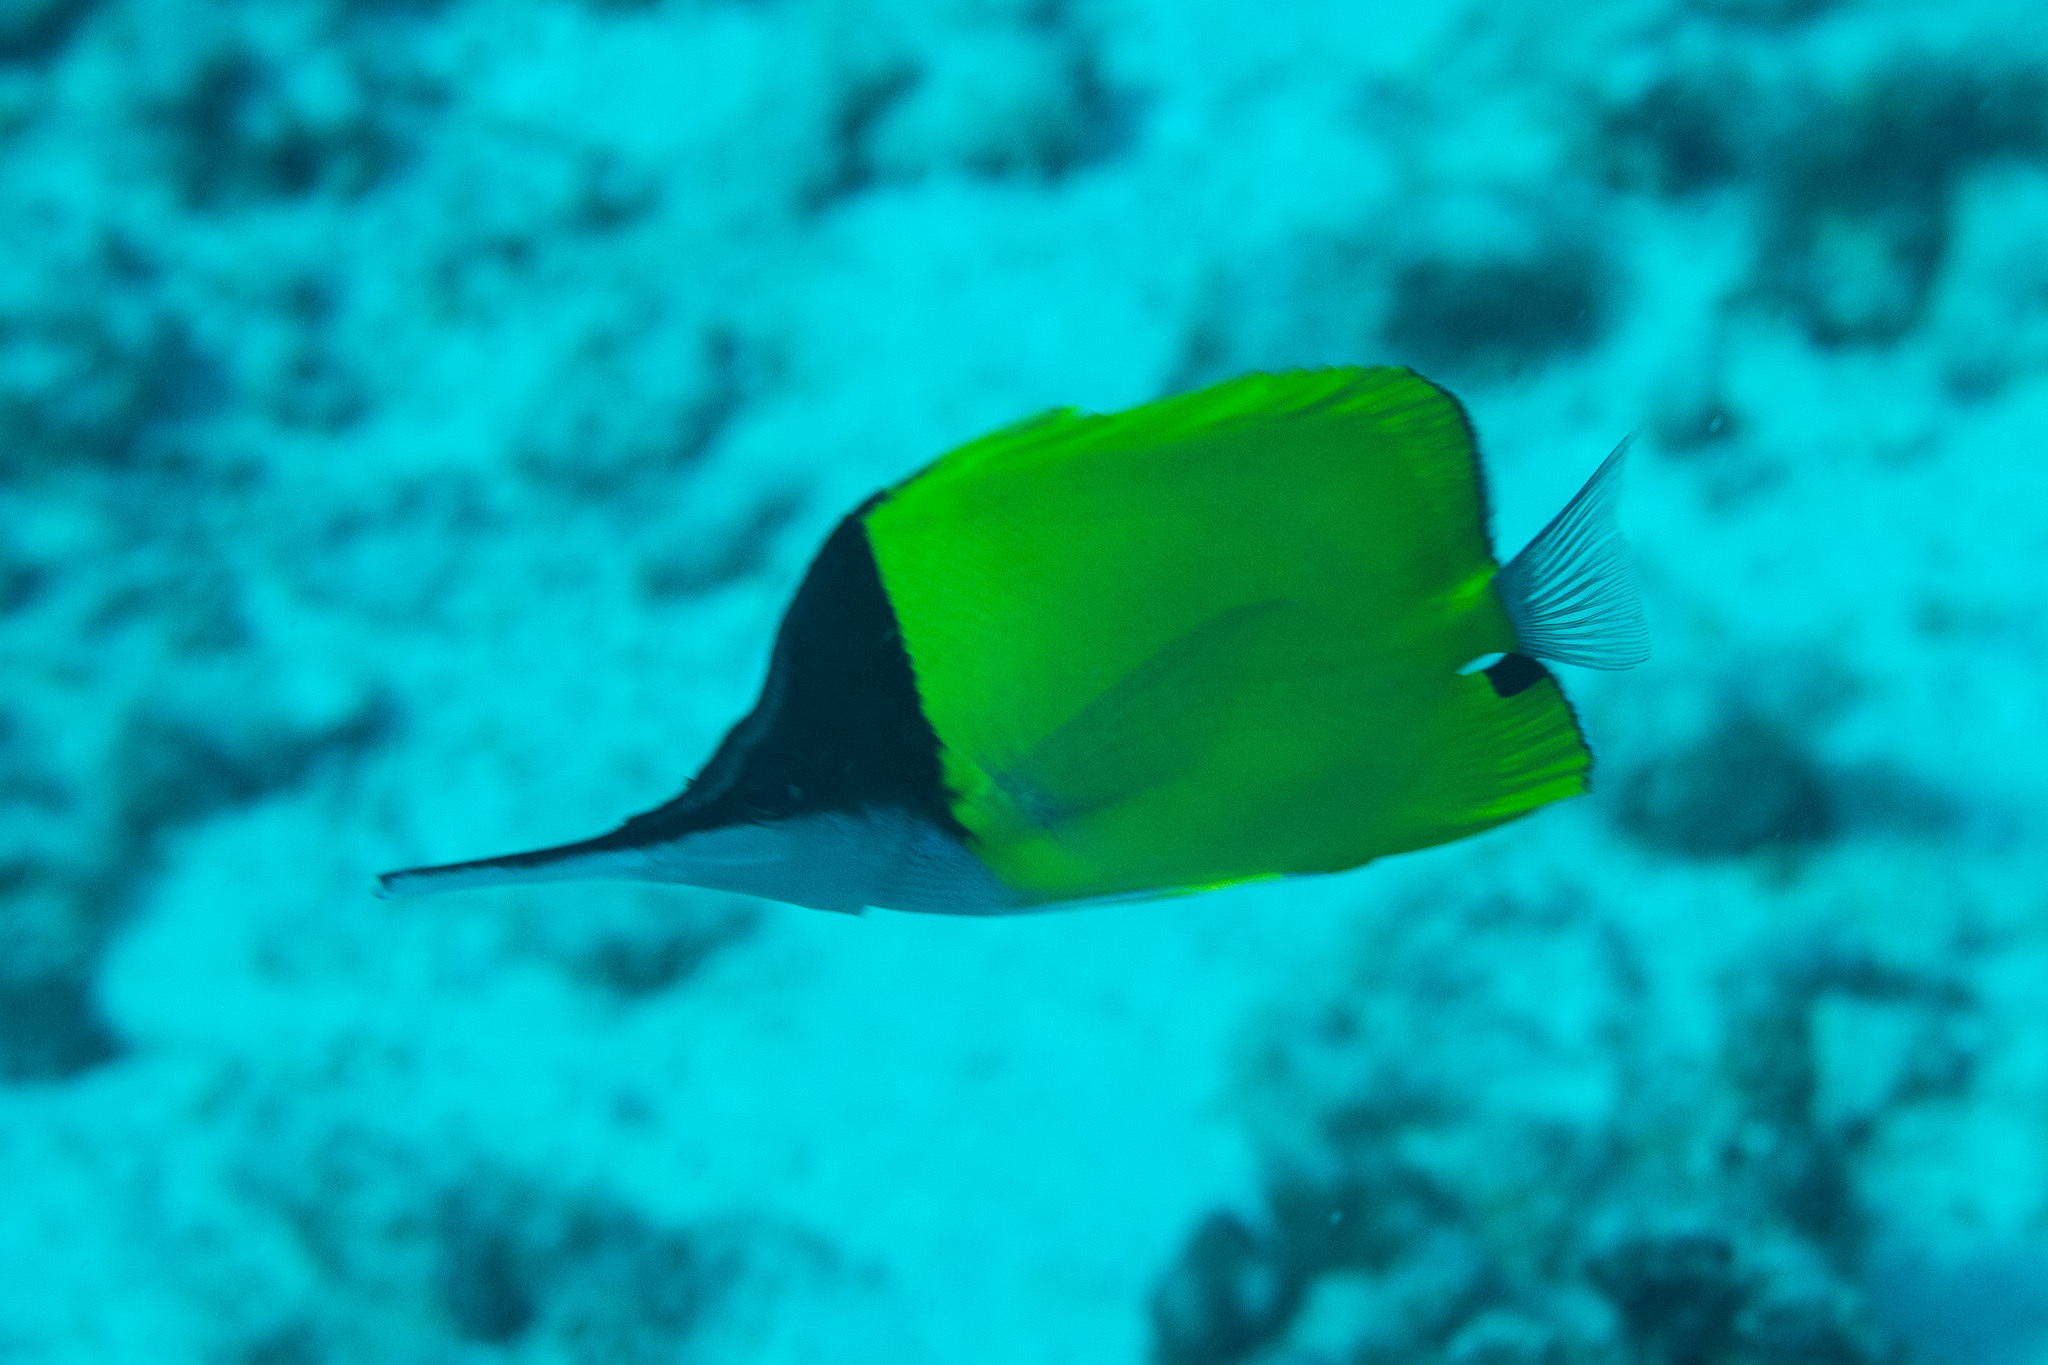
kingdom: Animalia
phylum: Chordata
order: Perciformes
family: Chaetodontidae
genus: Forcipiger
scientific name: Forcipiger longirostris
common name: Longnose butterflyfish
